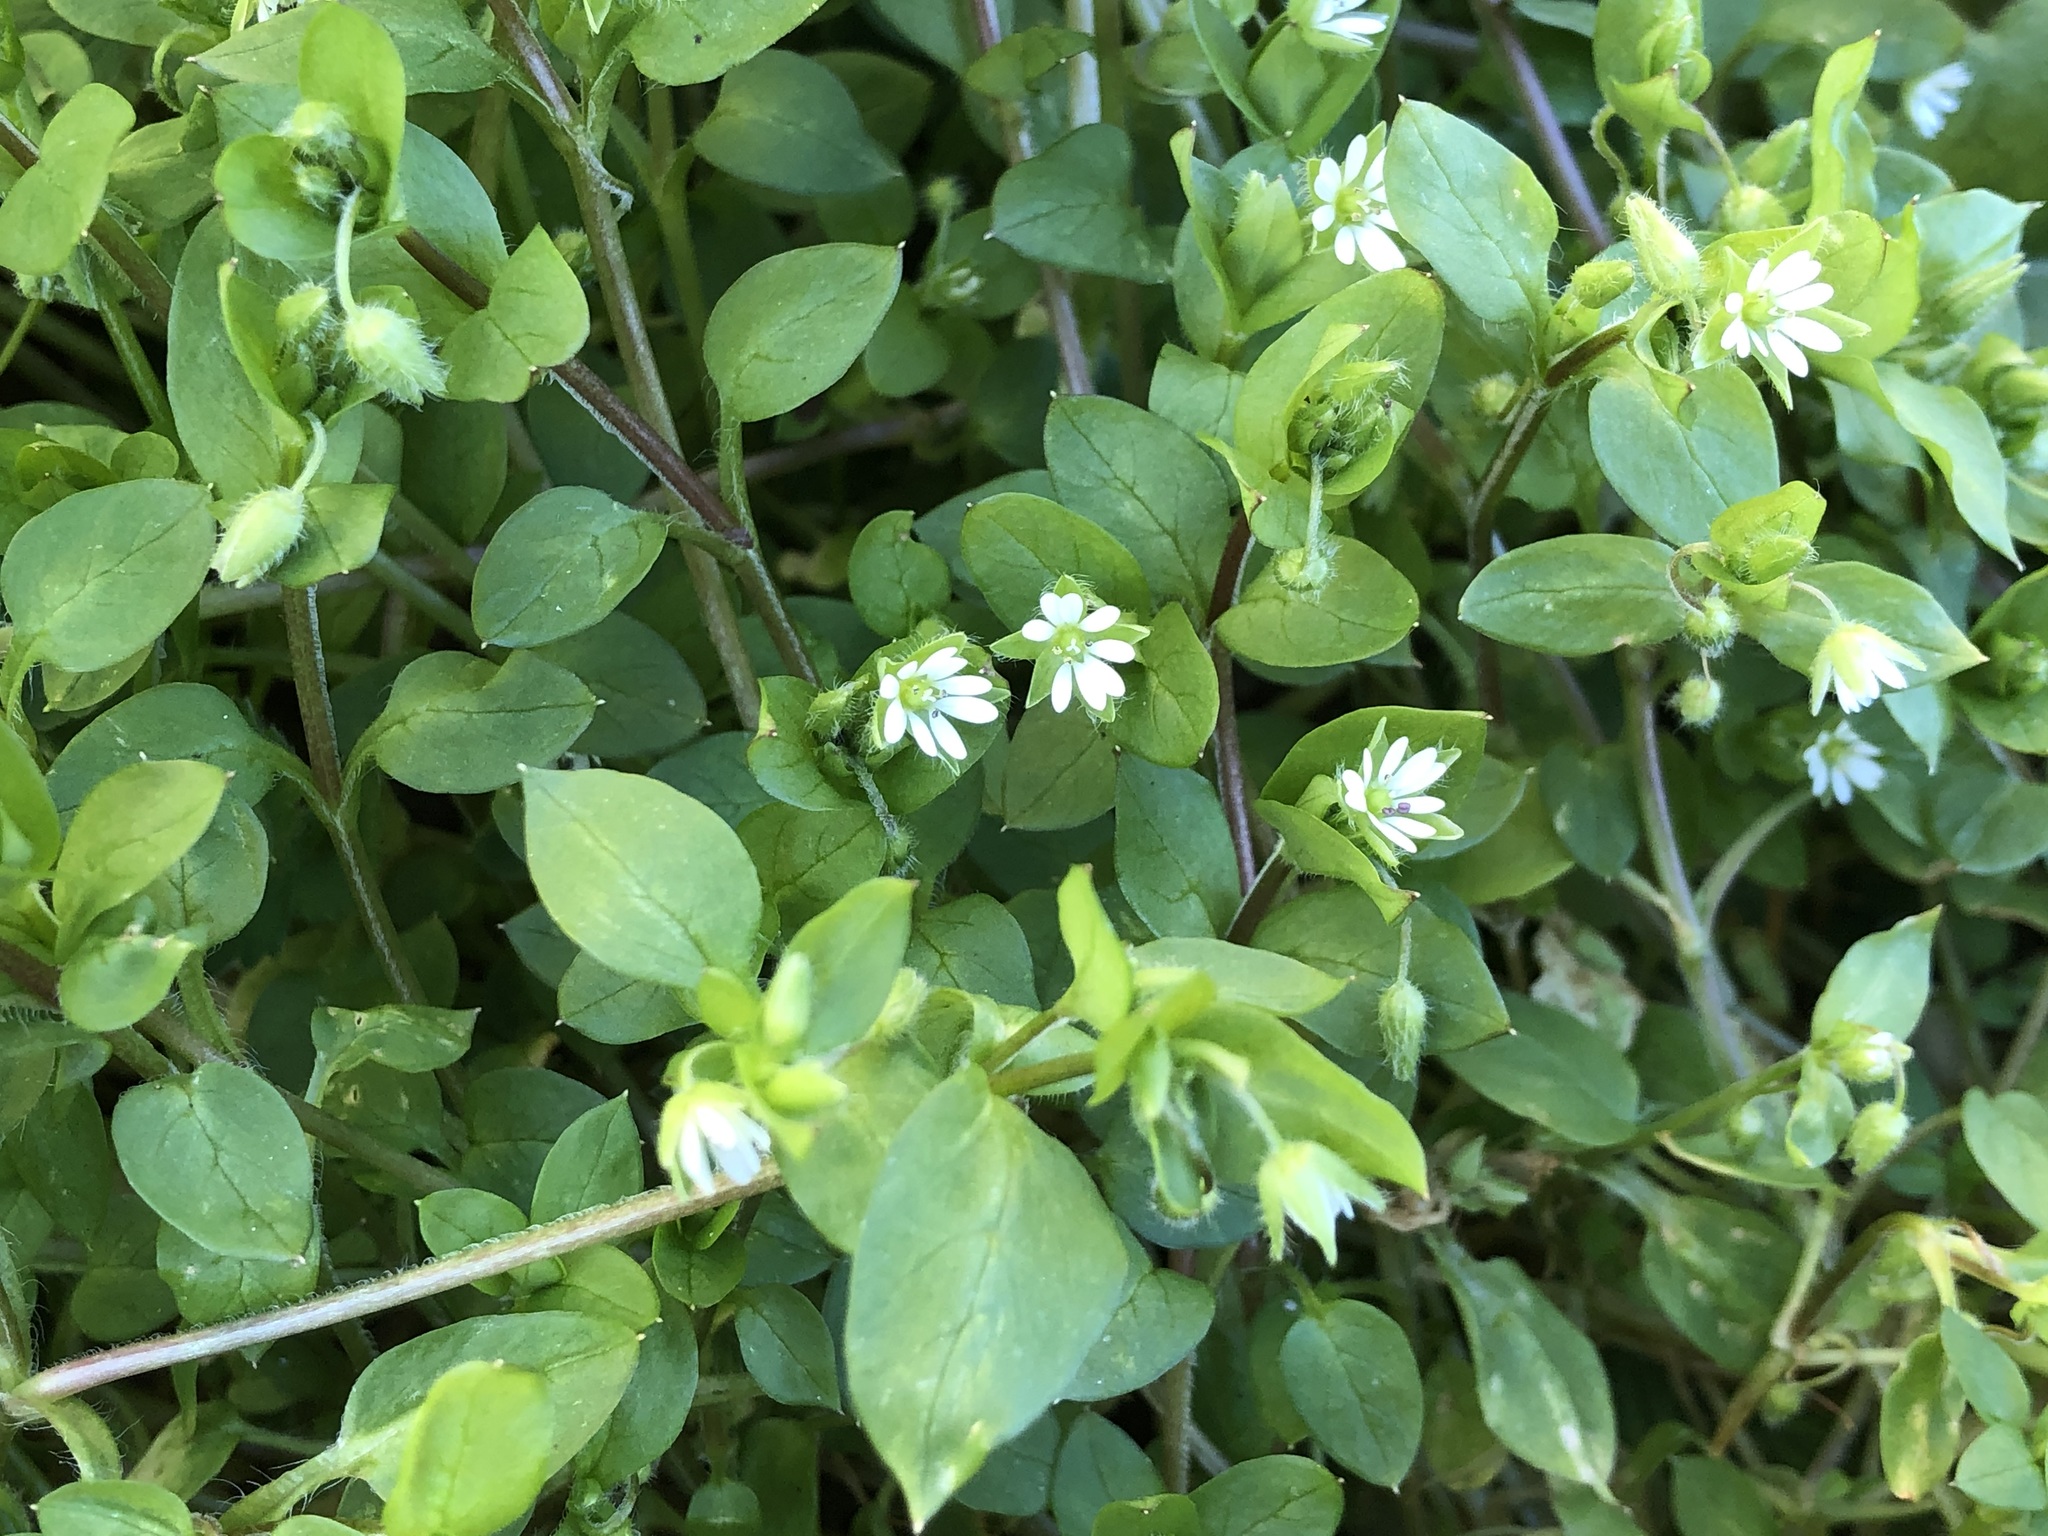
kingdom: Plantae
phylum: Tracheophyta
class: Magnoliopsida
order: Caryophyllales
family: Caryophyllaceae
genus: Stellaria
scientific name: Stellaria media
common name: Common chickweed
